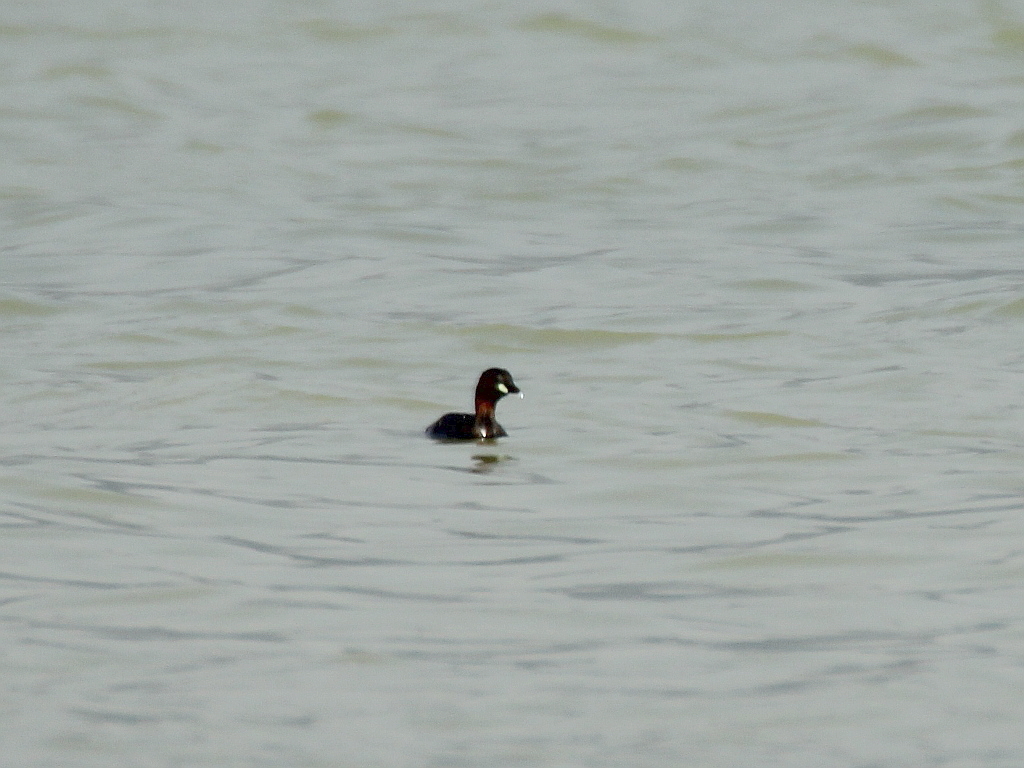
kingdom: Animalia
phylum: Chordata
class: Aves
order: Podicipediformes
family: Podicipedidae
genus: Tachybaptus
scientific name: Tachybaptus ruficollis
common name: Little grebe
